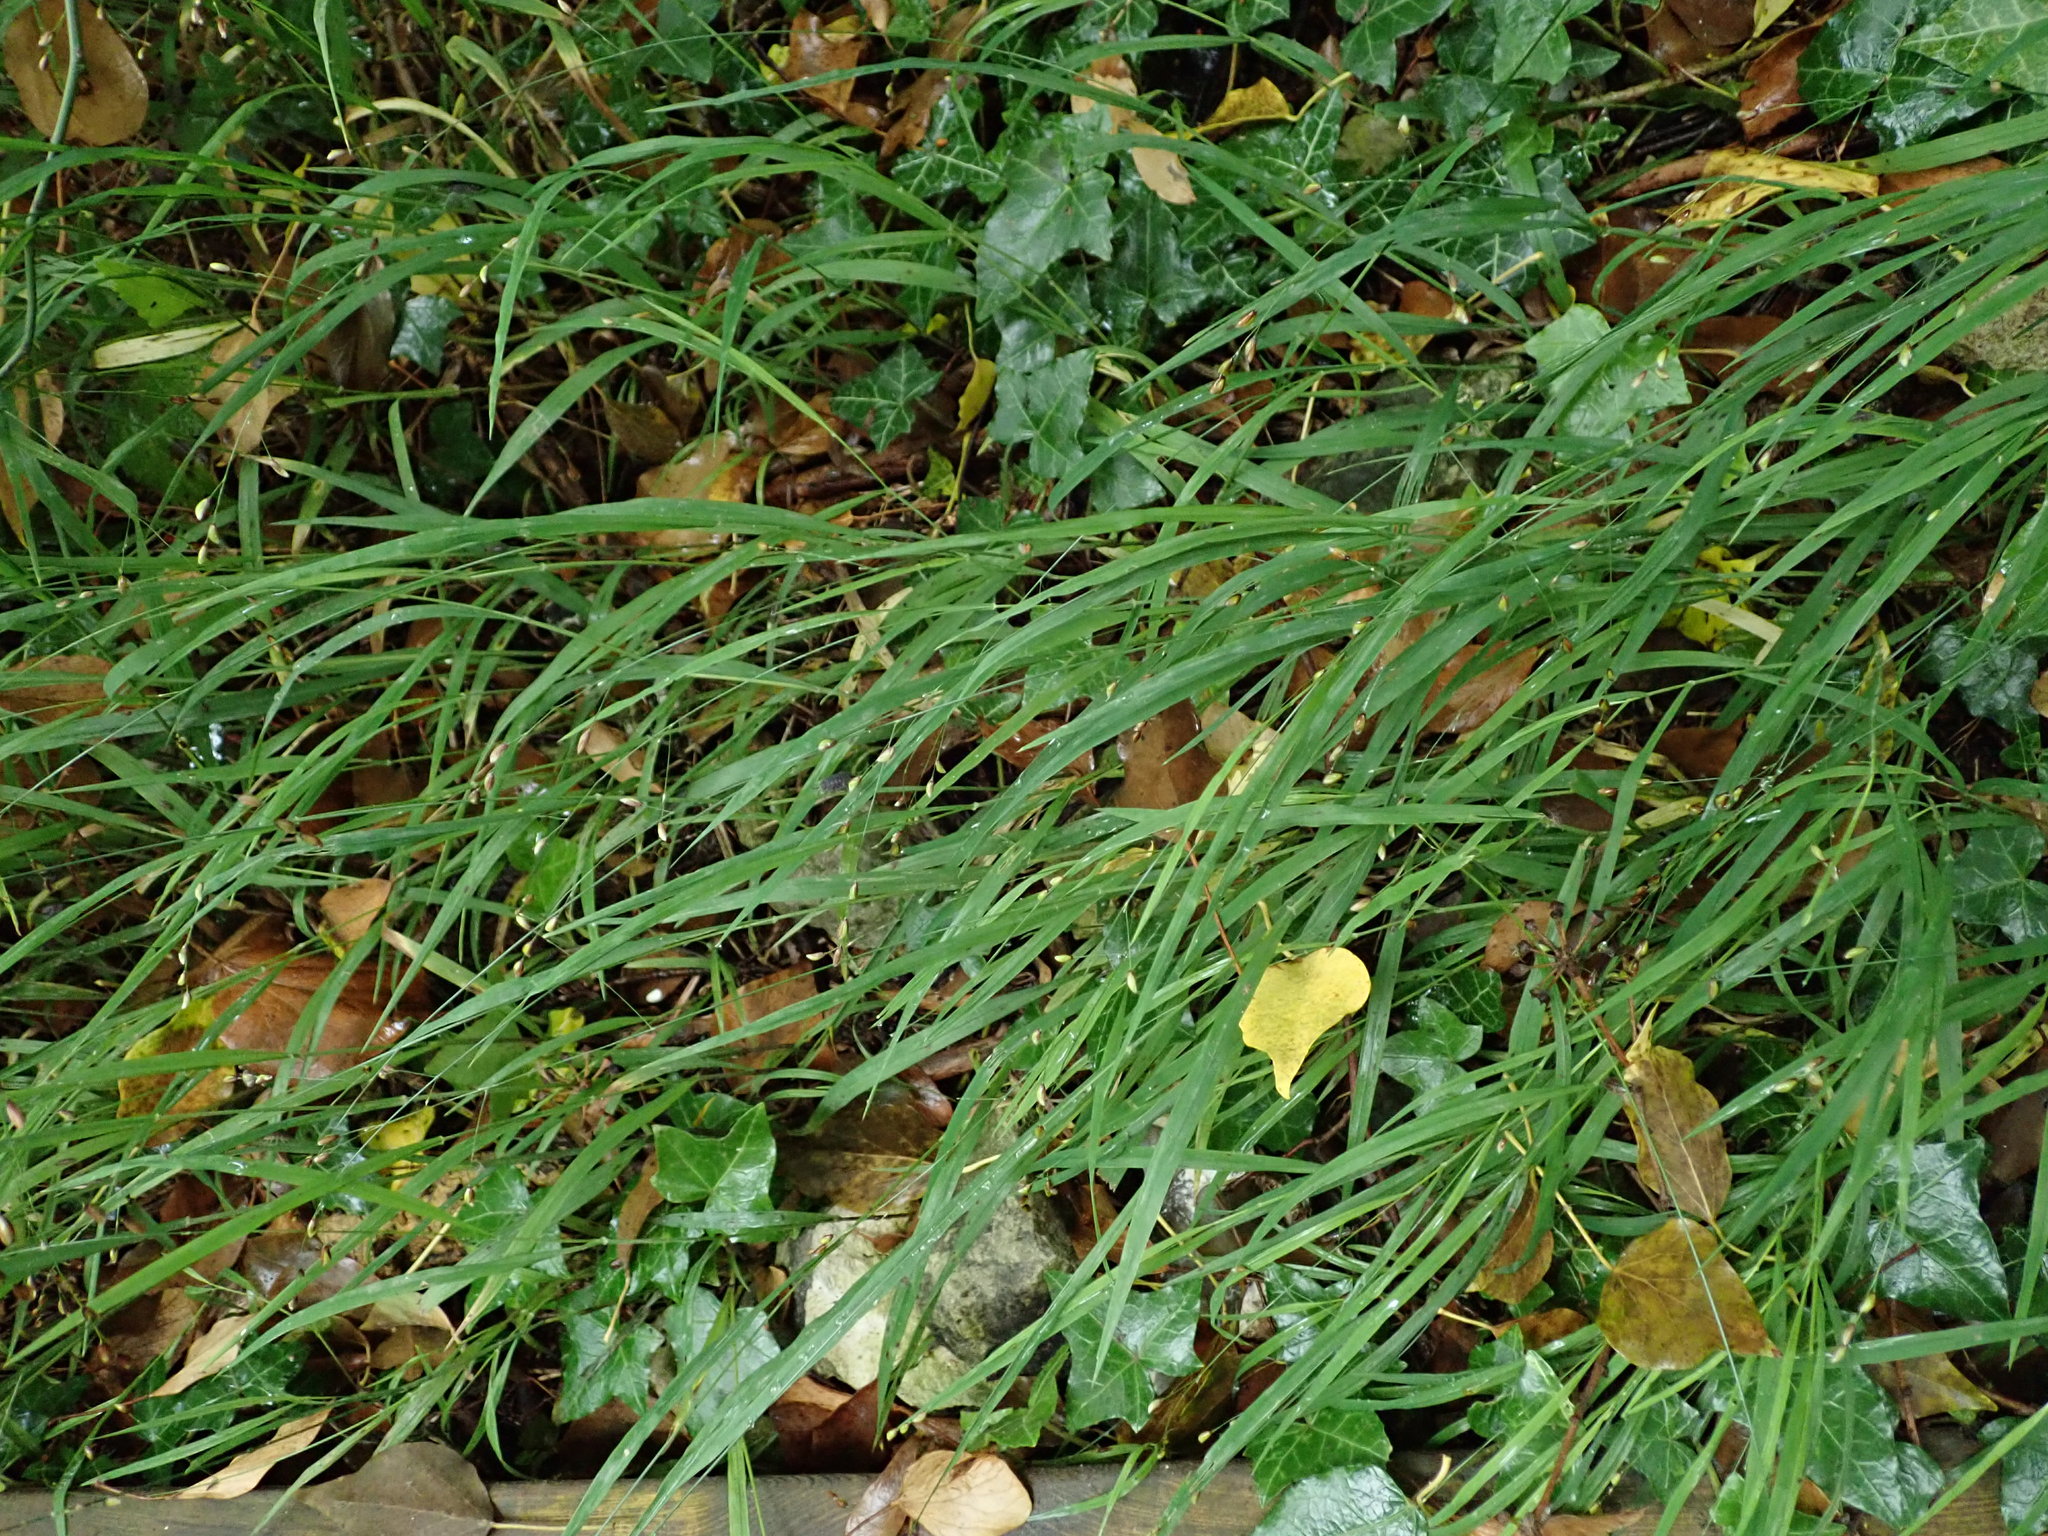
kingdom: Plantae
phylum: Tracheophyta
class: Liliopsida
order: Poales
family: Poaceae
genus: Melica
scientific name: Melica uniflora
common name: Wood melick
